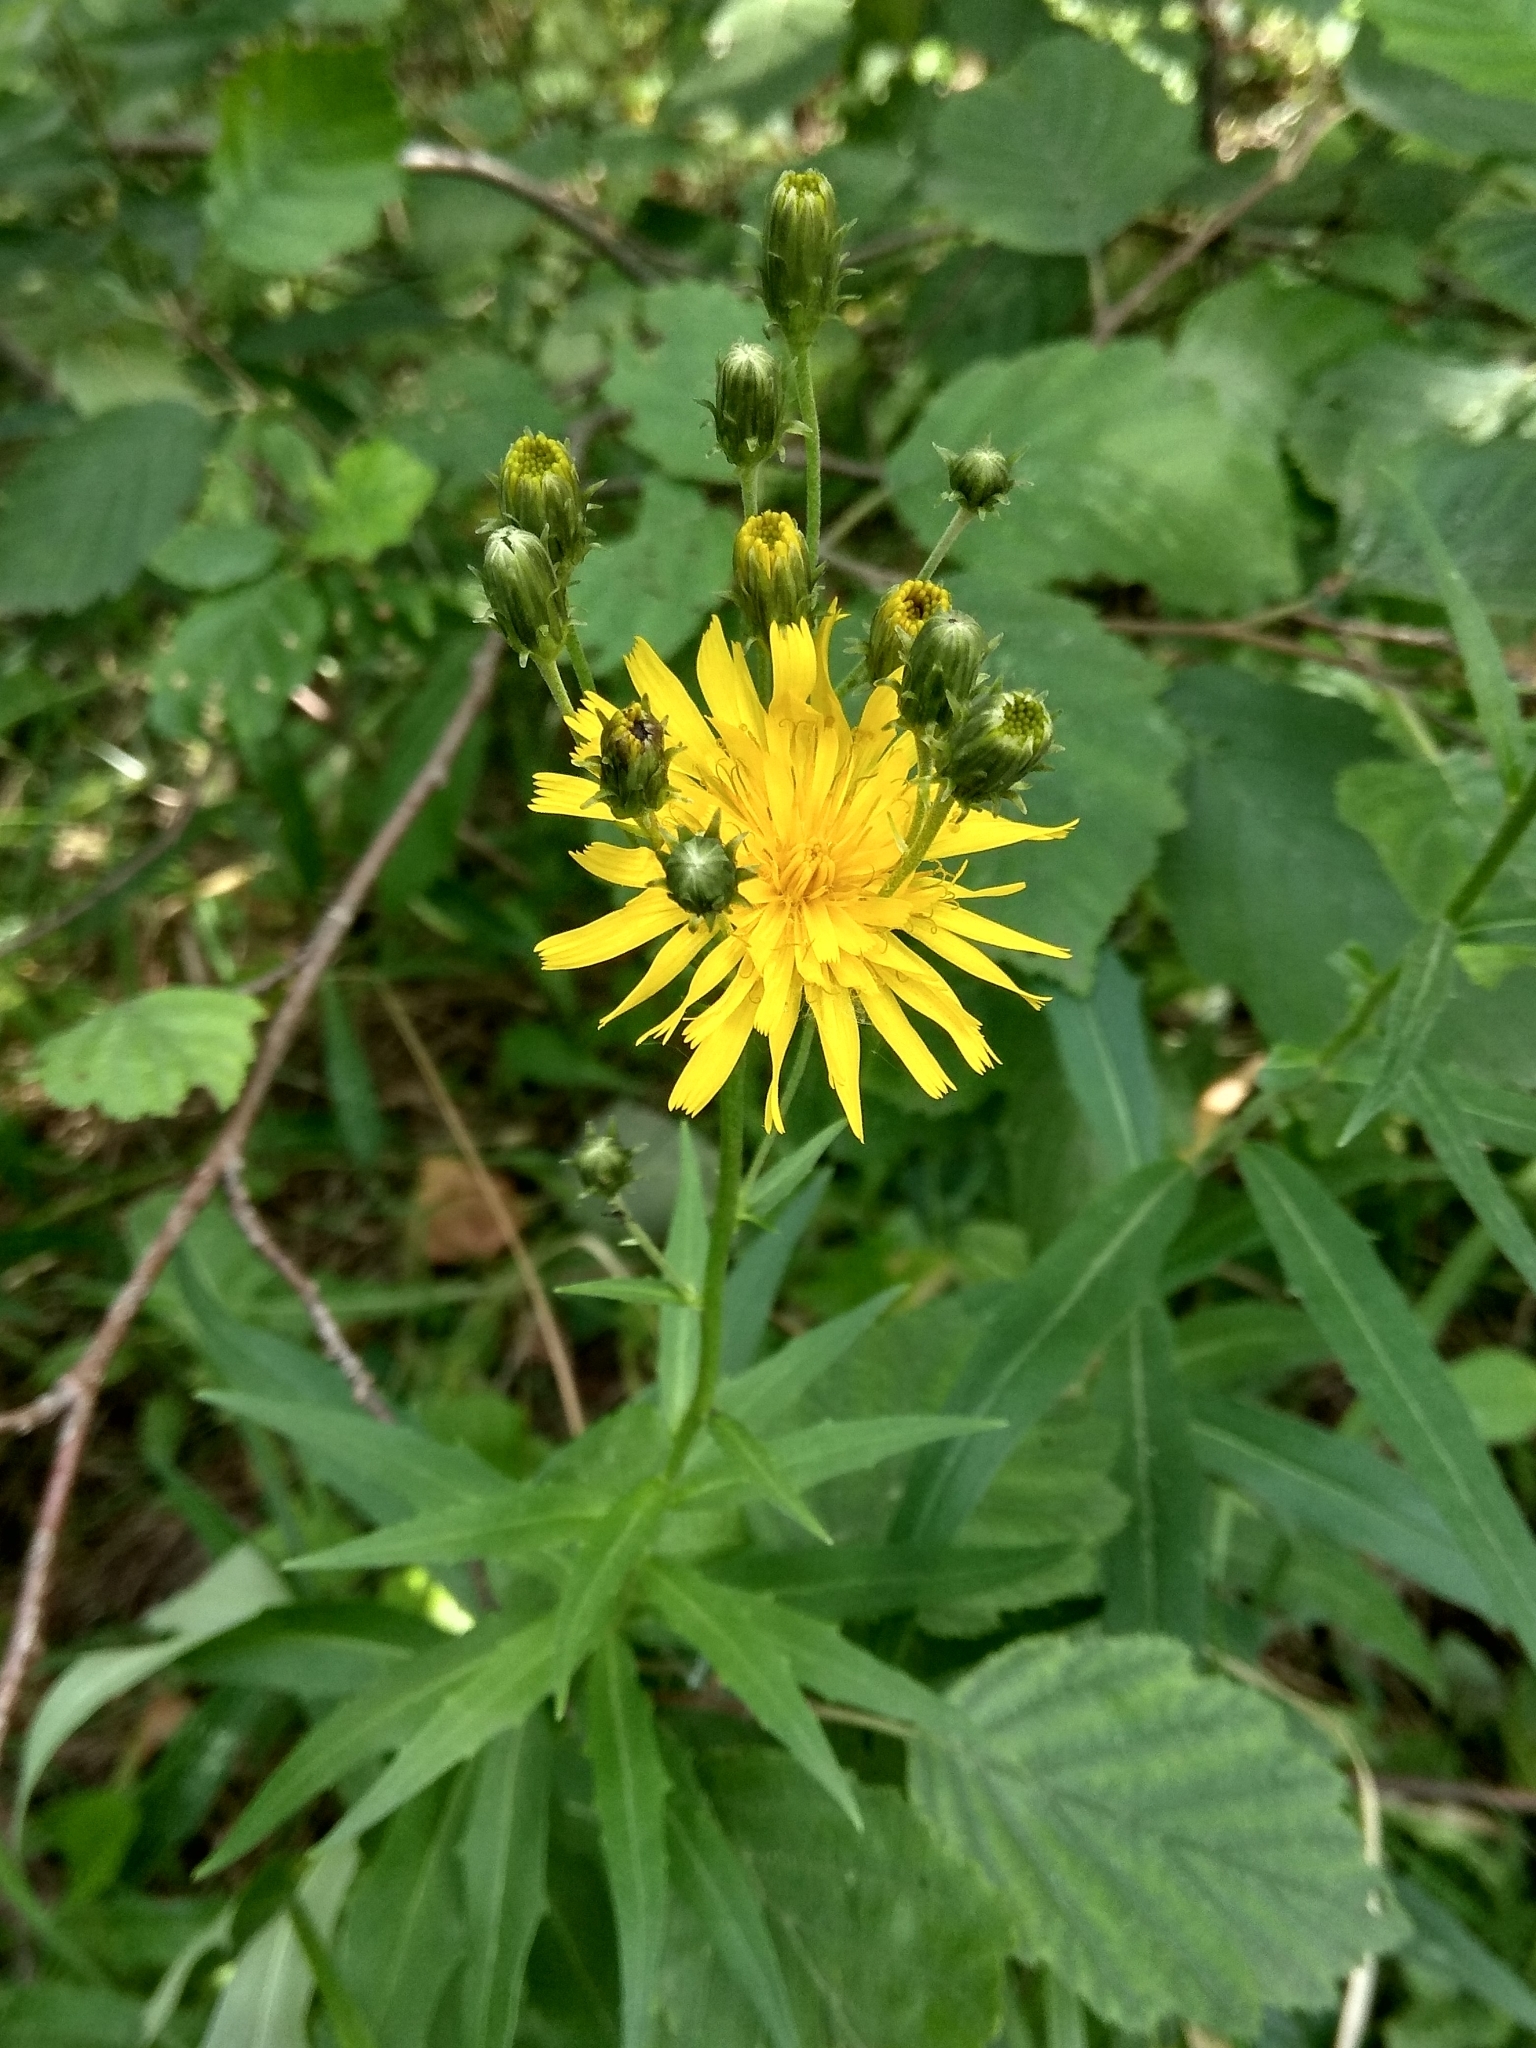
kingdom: Plantae
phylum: Tracheophyta
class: Magnoliopsida
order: Asterales
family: Asteraceae
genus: Hieracium
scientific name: Hieracium umbellatum
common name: Northern hawkweed
